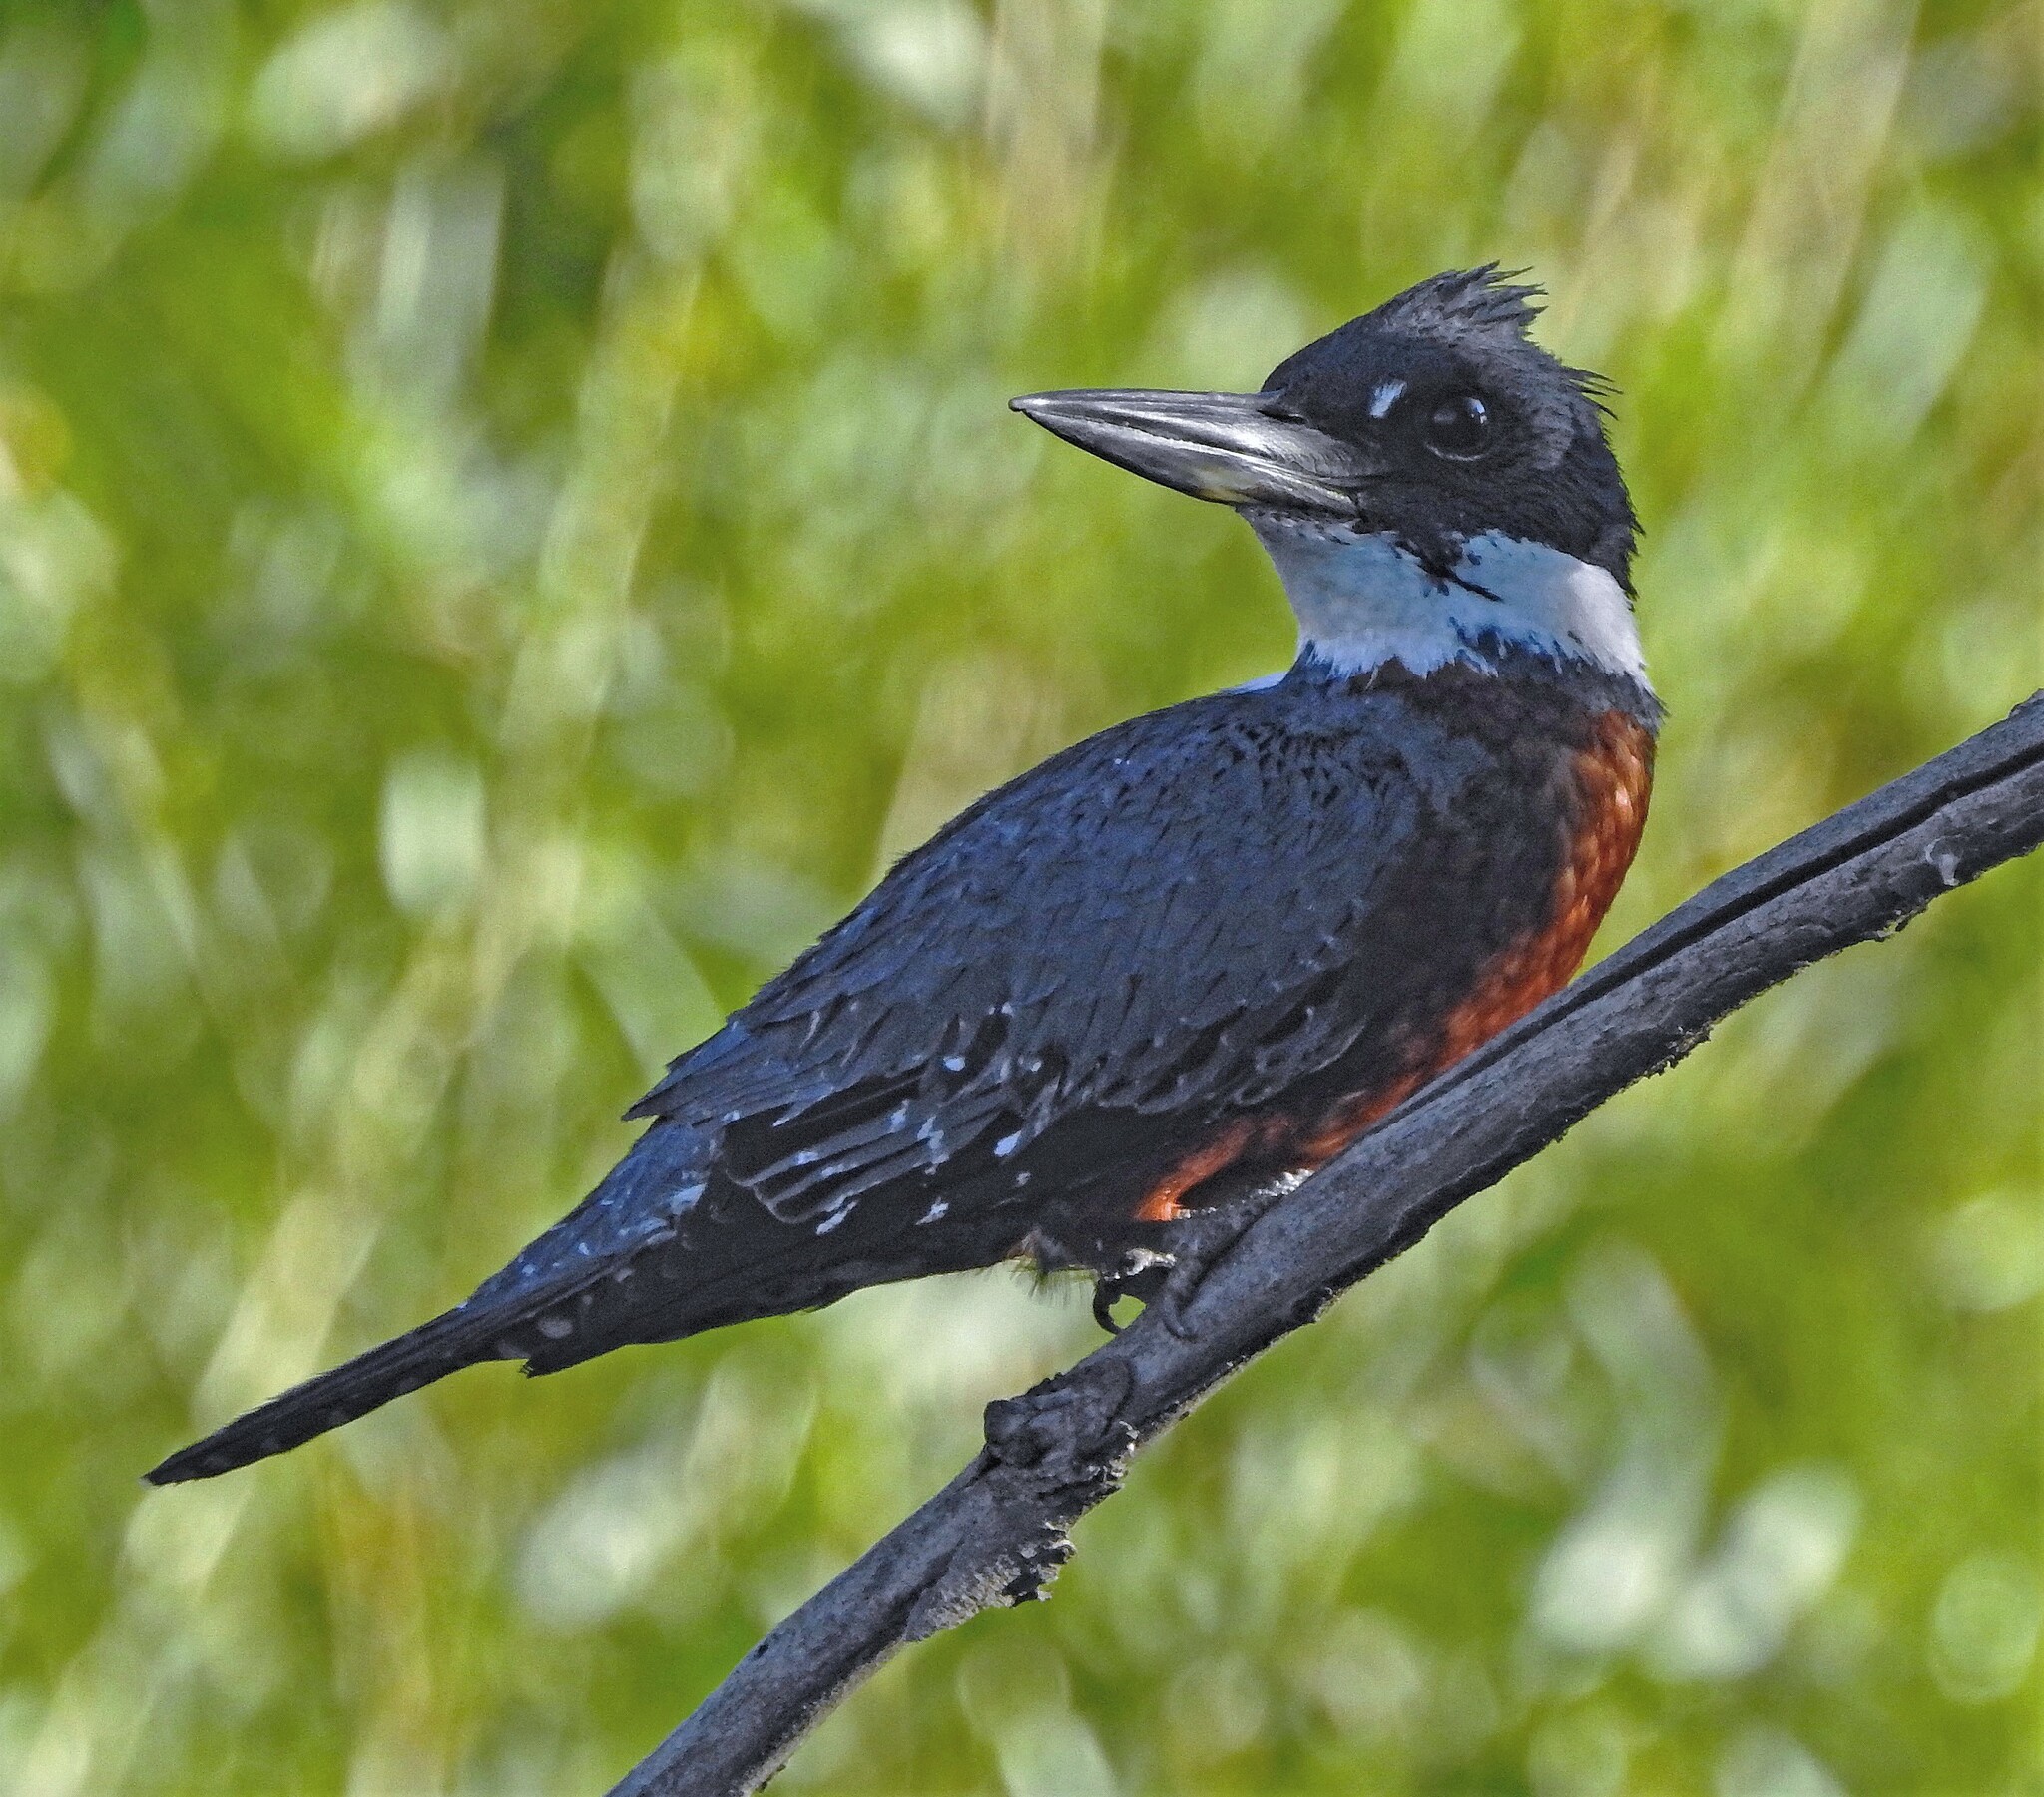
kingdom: Animalia
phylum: Chordata
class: Aves
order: Coraciiformes
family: Alcedinidae
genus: Megaceryle
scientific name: Megaceryle torquata
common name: Ringed kingfisher
